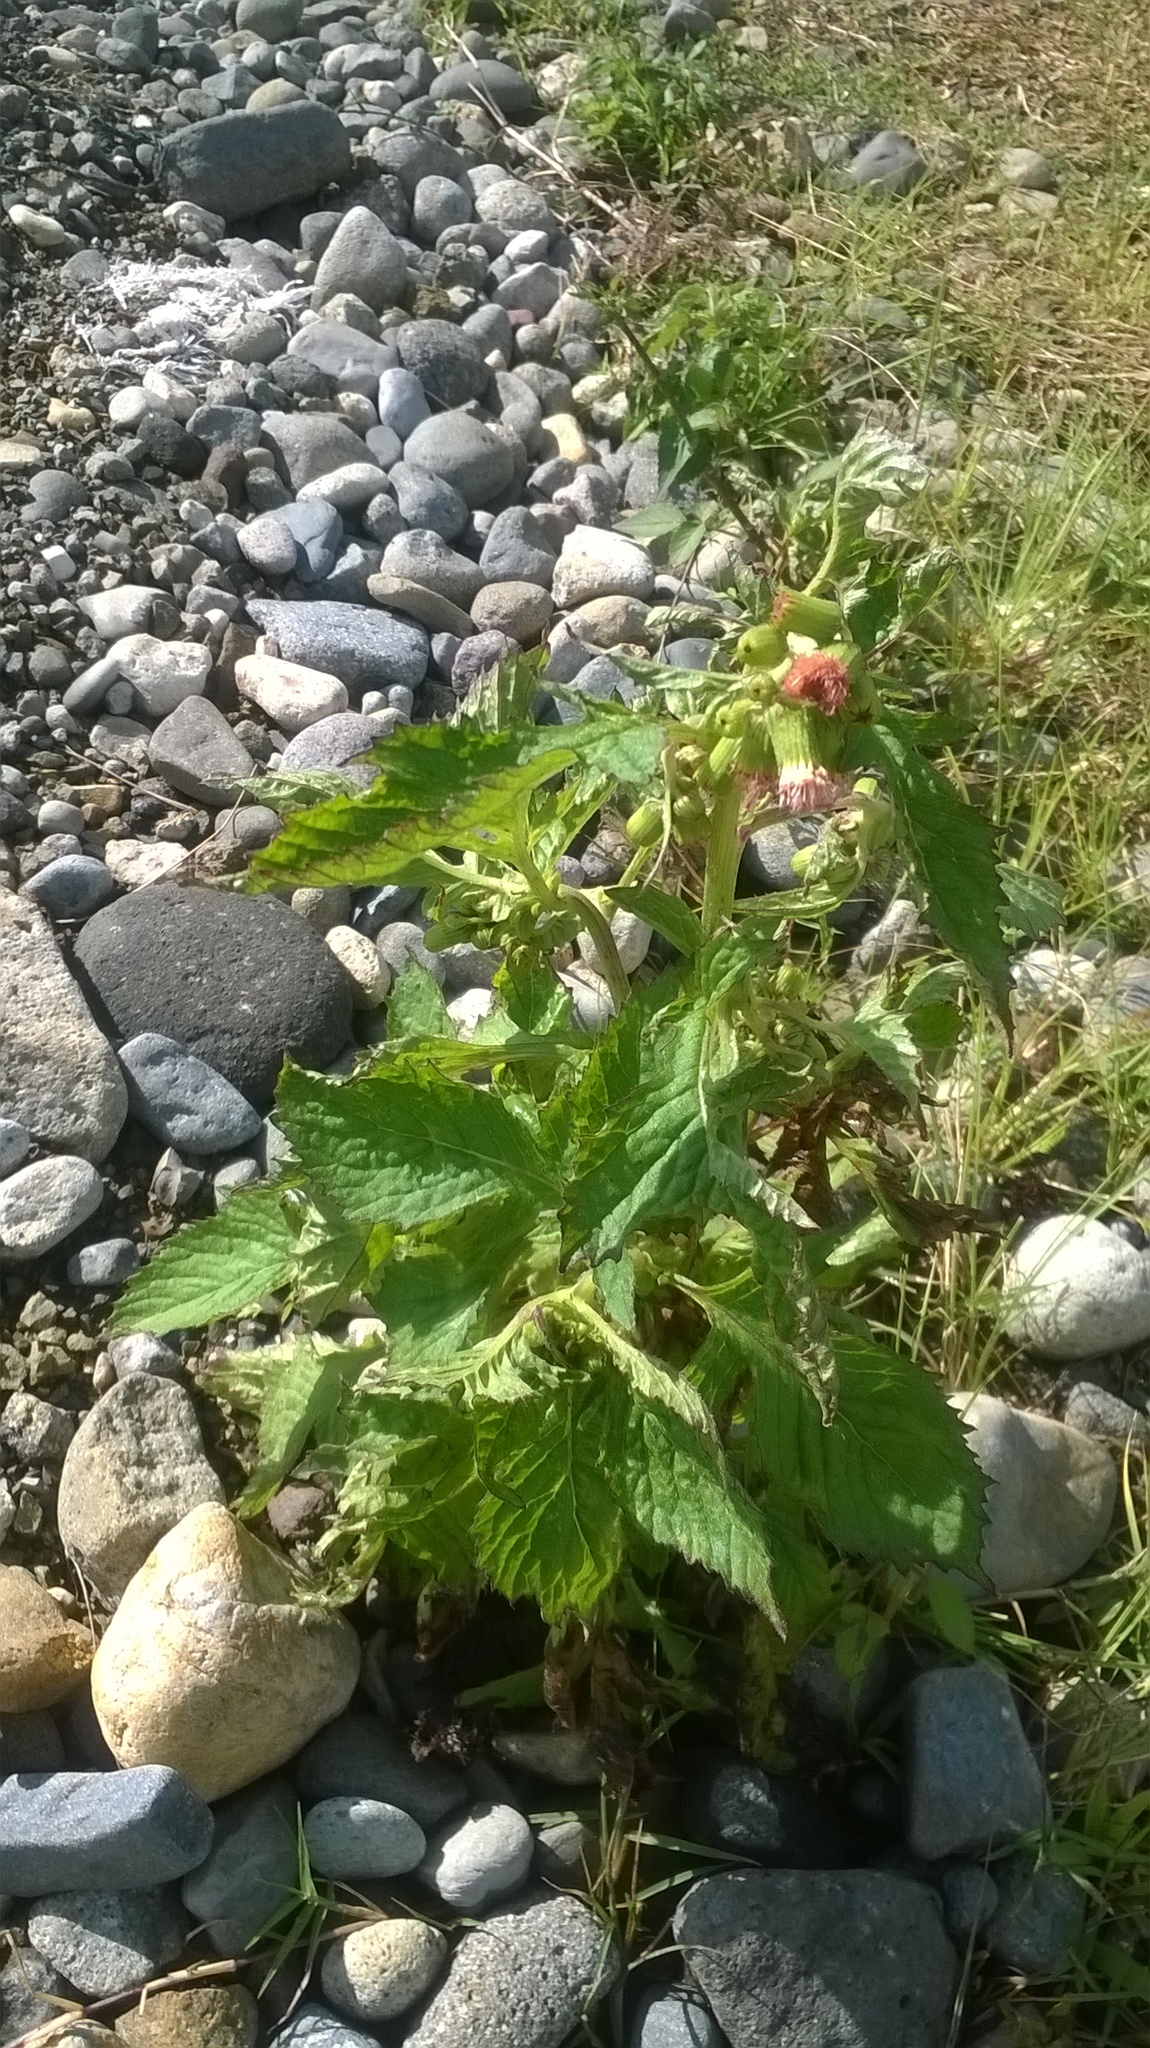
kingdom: Plantae
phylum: Tracheophyta
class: Magnoliopsida
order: Asterales
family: Asteraceae
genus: Crassocephalum
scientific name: Crassocephalum crepidioides
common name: Redflower ragleaf
